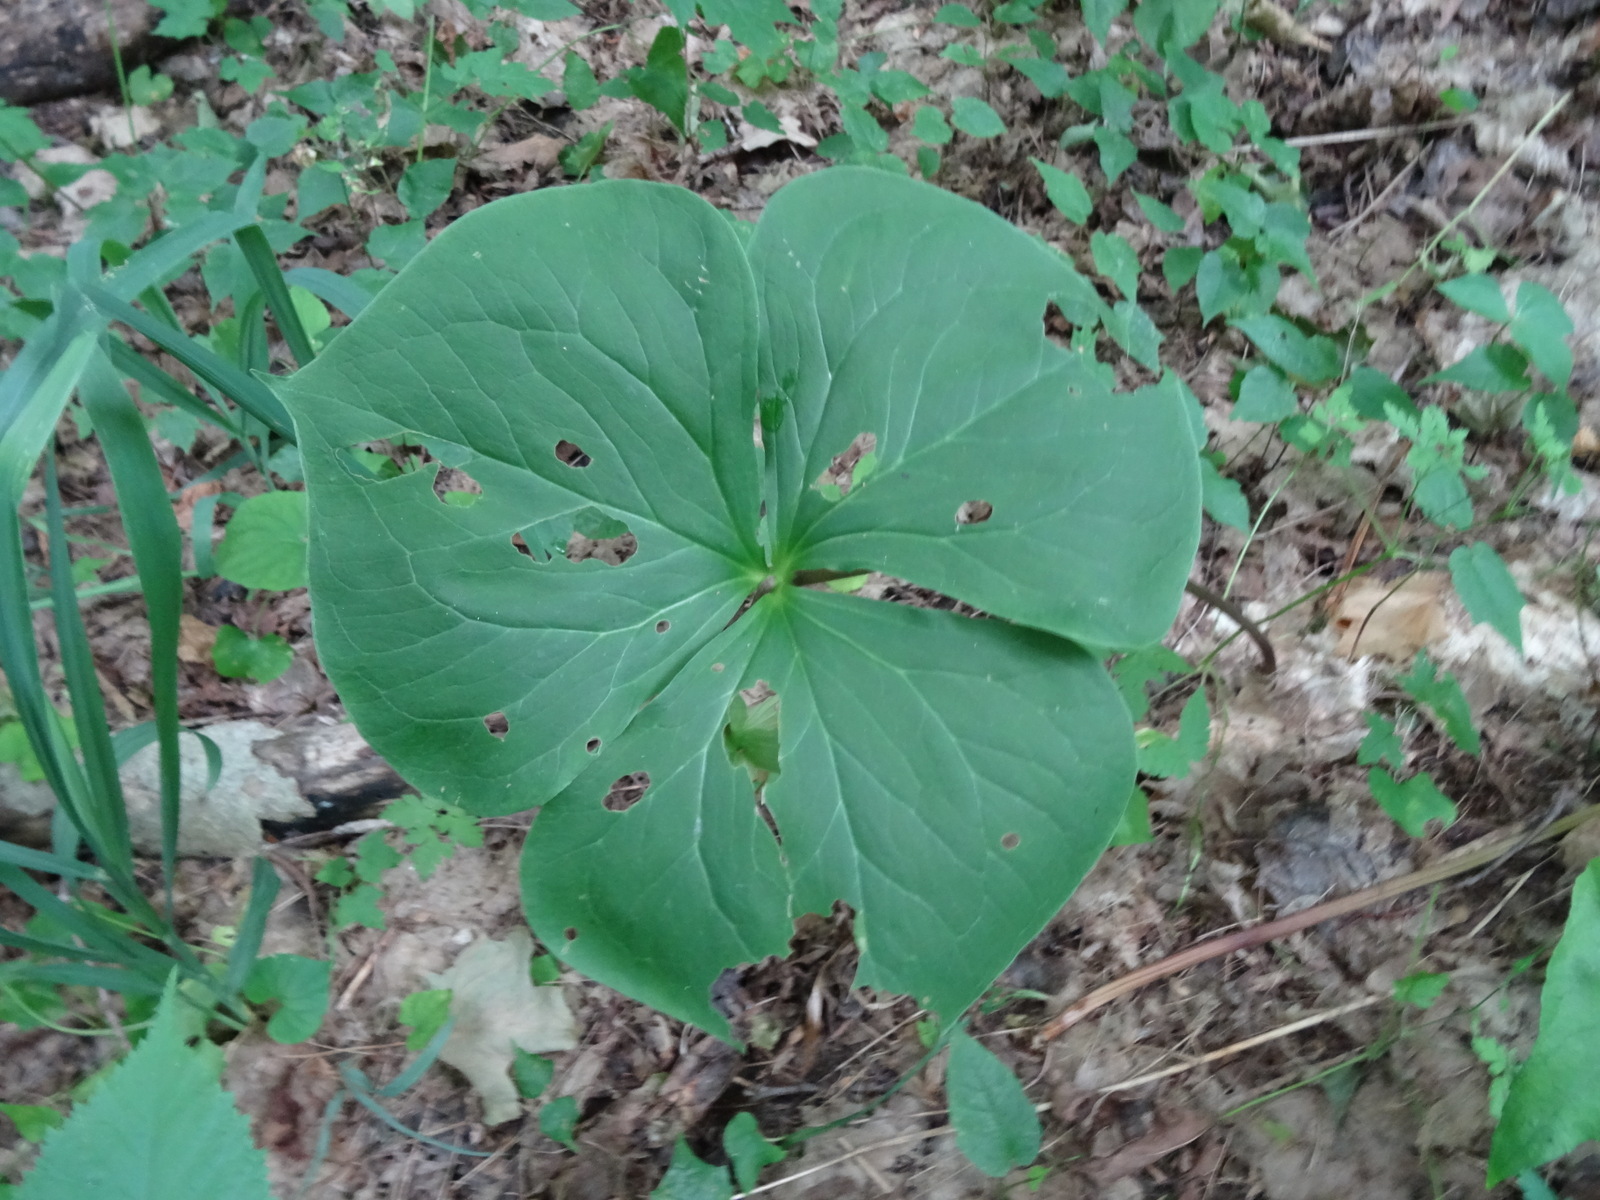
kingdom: Plantae
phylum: Tracheophyta
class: Liliopsida
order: Liliales
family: Melanthiaceae
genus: Trillium
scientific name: Trillium cernuum
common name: Nodding trillium
